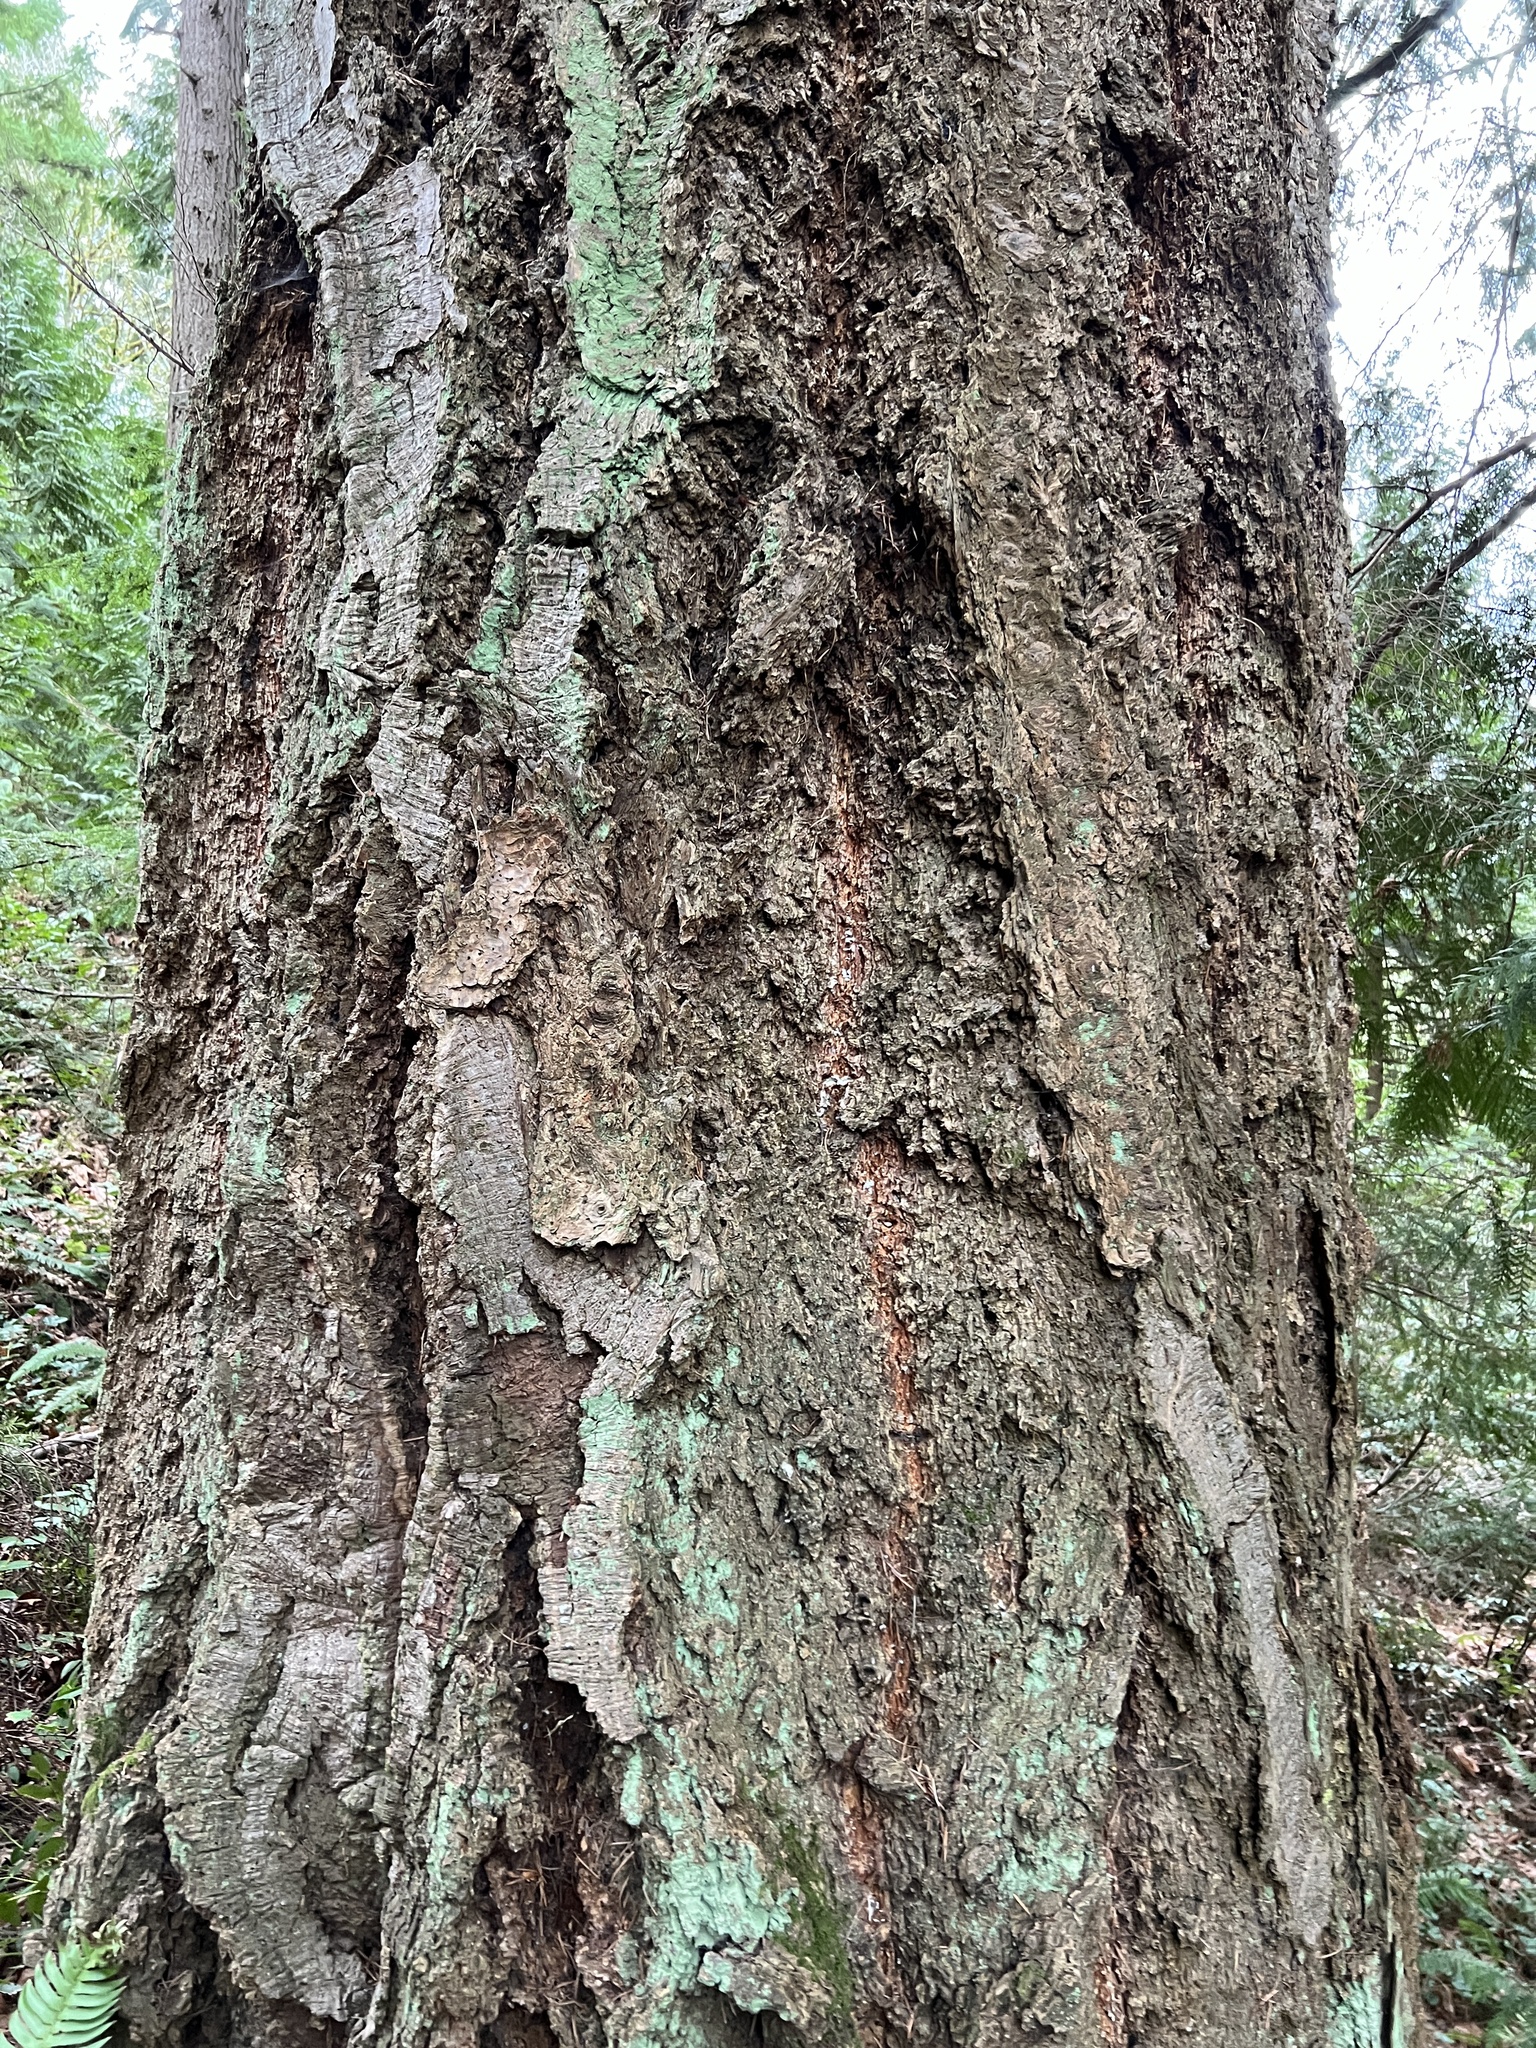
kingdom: Plantae
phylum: Tracheophyta
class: Pinopsida
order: Pinales
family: Pinaceae
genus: Pseudotsuga
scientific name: Pseudotsuga menziesii
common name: Douglas fir
